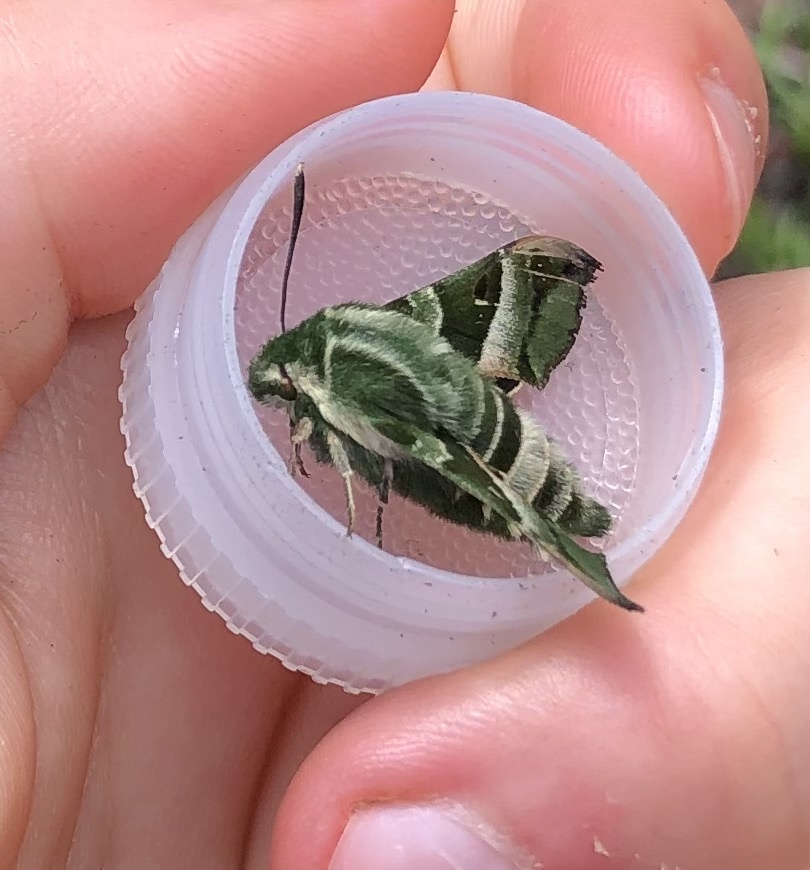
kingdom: Animalia
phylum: Arthropoda
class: Insecta
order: Lepidoptera
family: Sphingidae
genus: Proserpinus
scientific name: Proserpinus clarkiae
